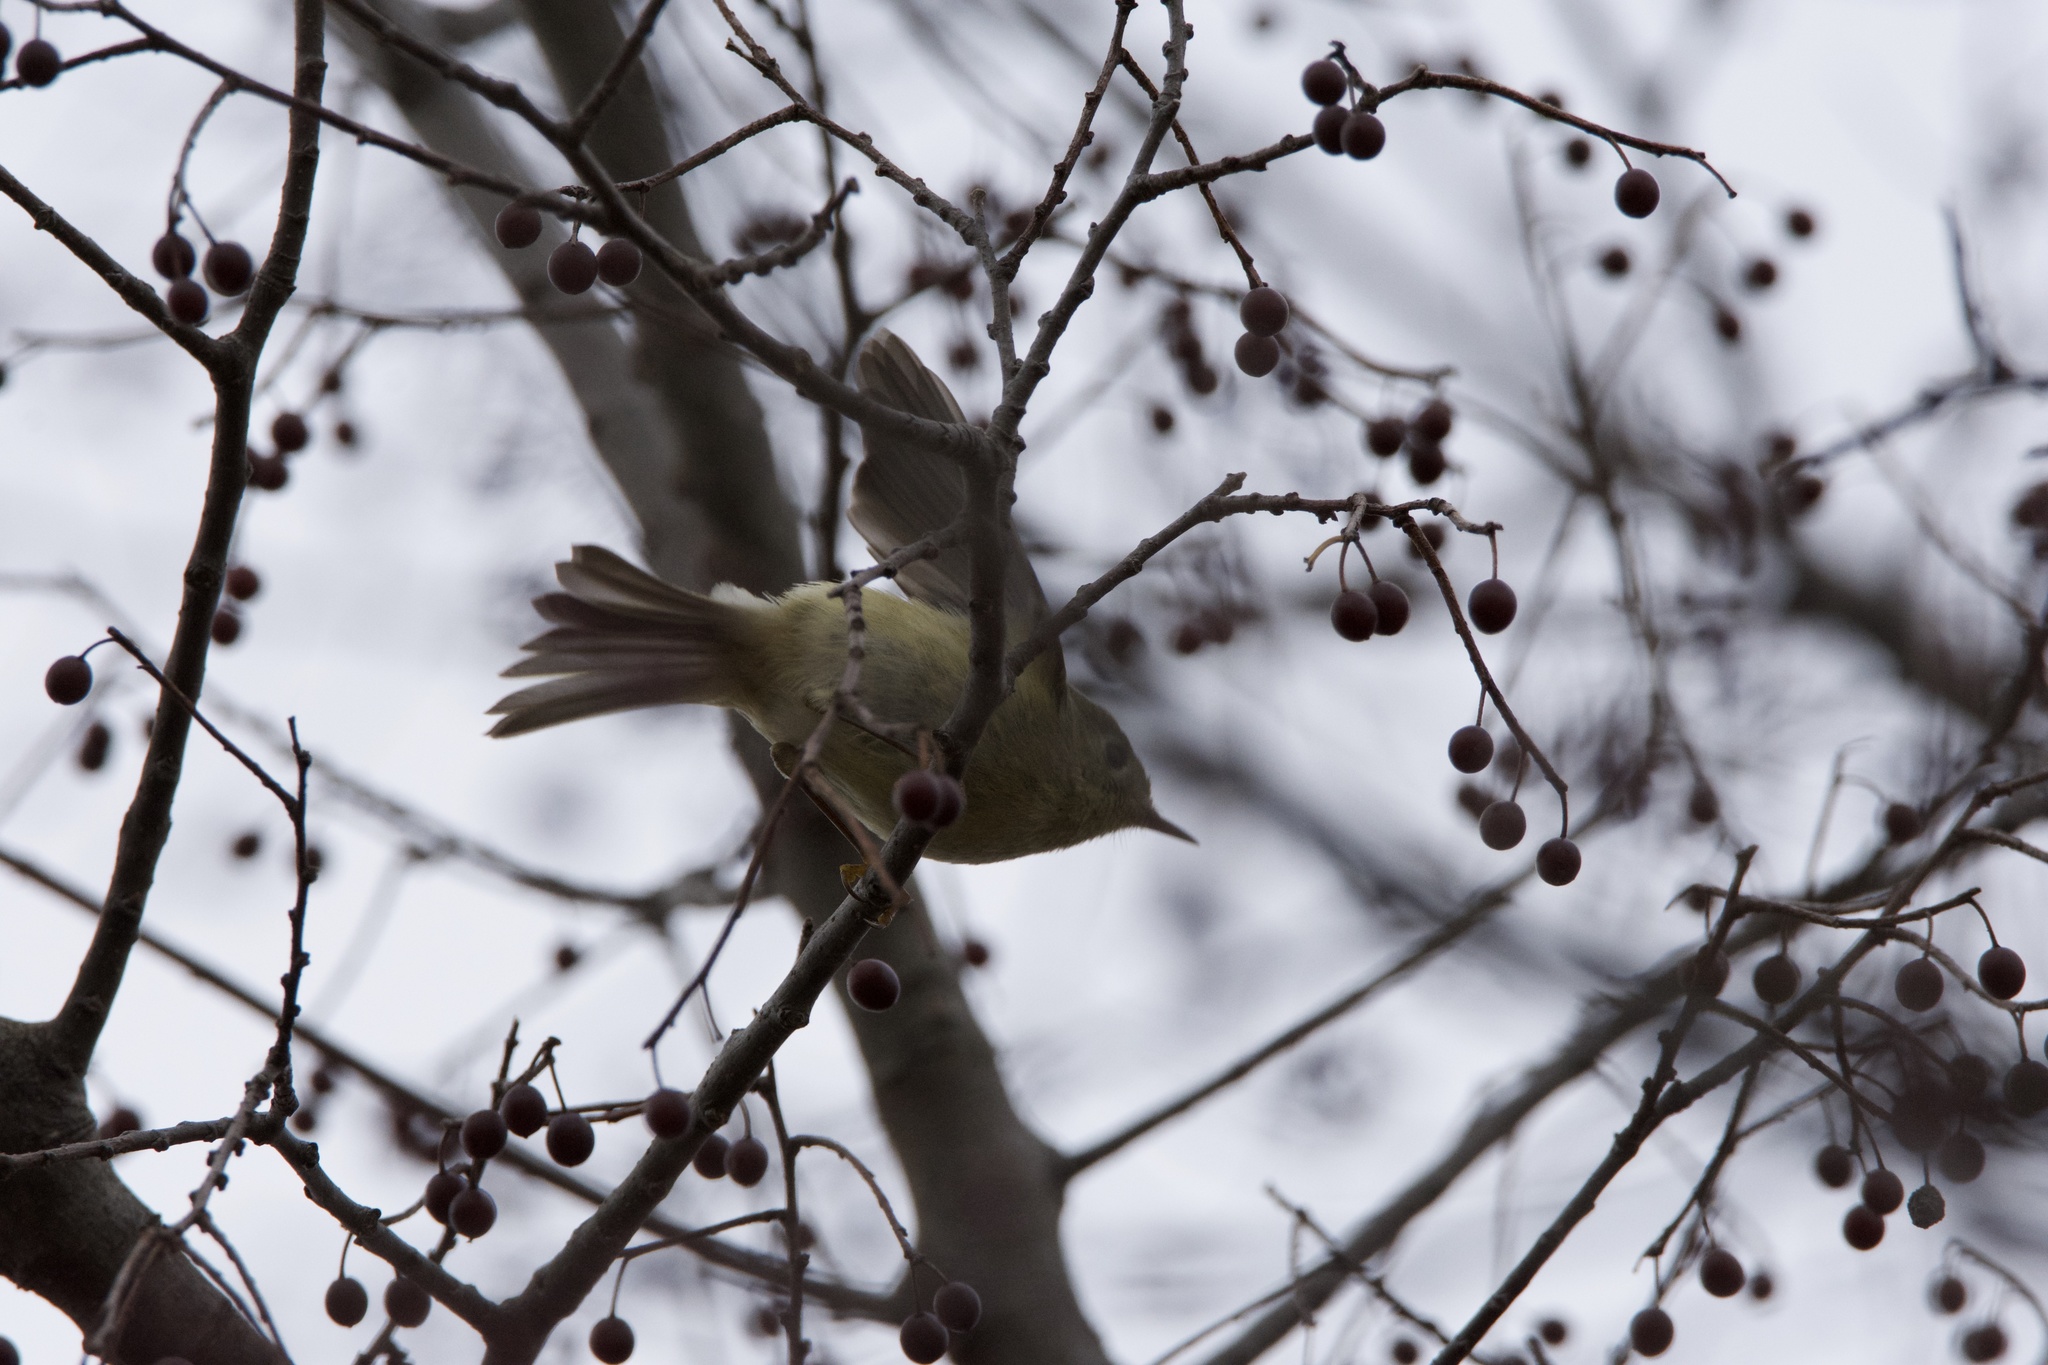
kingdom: Animalia
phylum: Chordata
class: Aves
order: Passeriformes
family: Regulidae
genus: Regulus
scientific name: Regulus calendula
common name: Ruby-crowned kinglet
